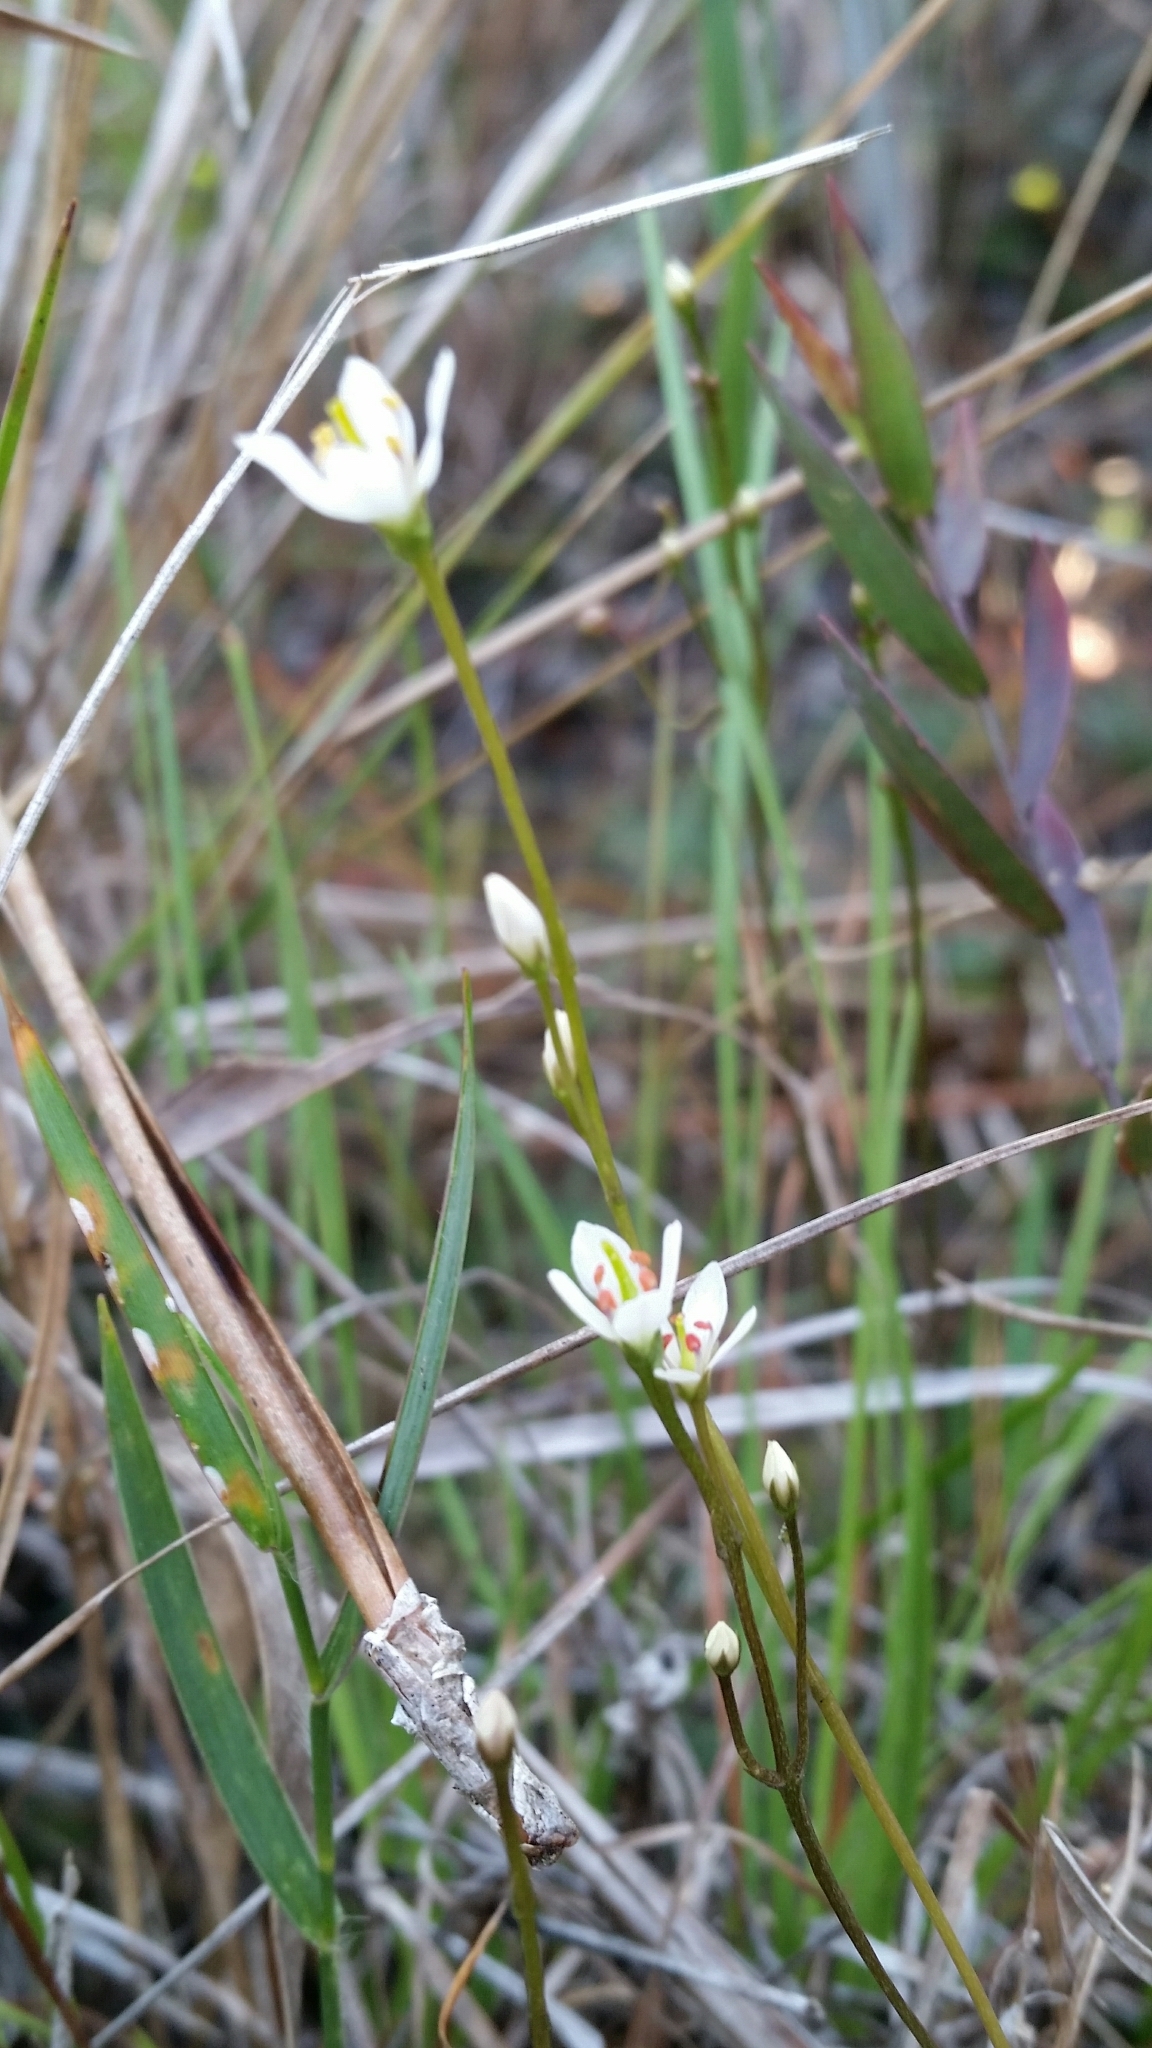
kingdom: Plantae
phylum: Tracheophyta
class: Magnoliopsida
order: Gentianales
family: Gentianaceae
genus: Bartonia
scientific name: Bartonia verna
